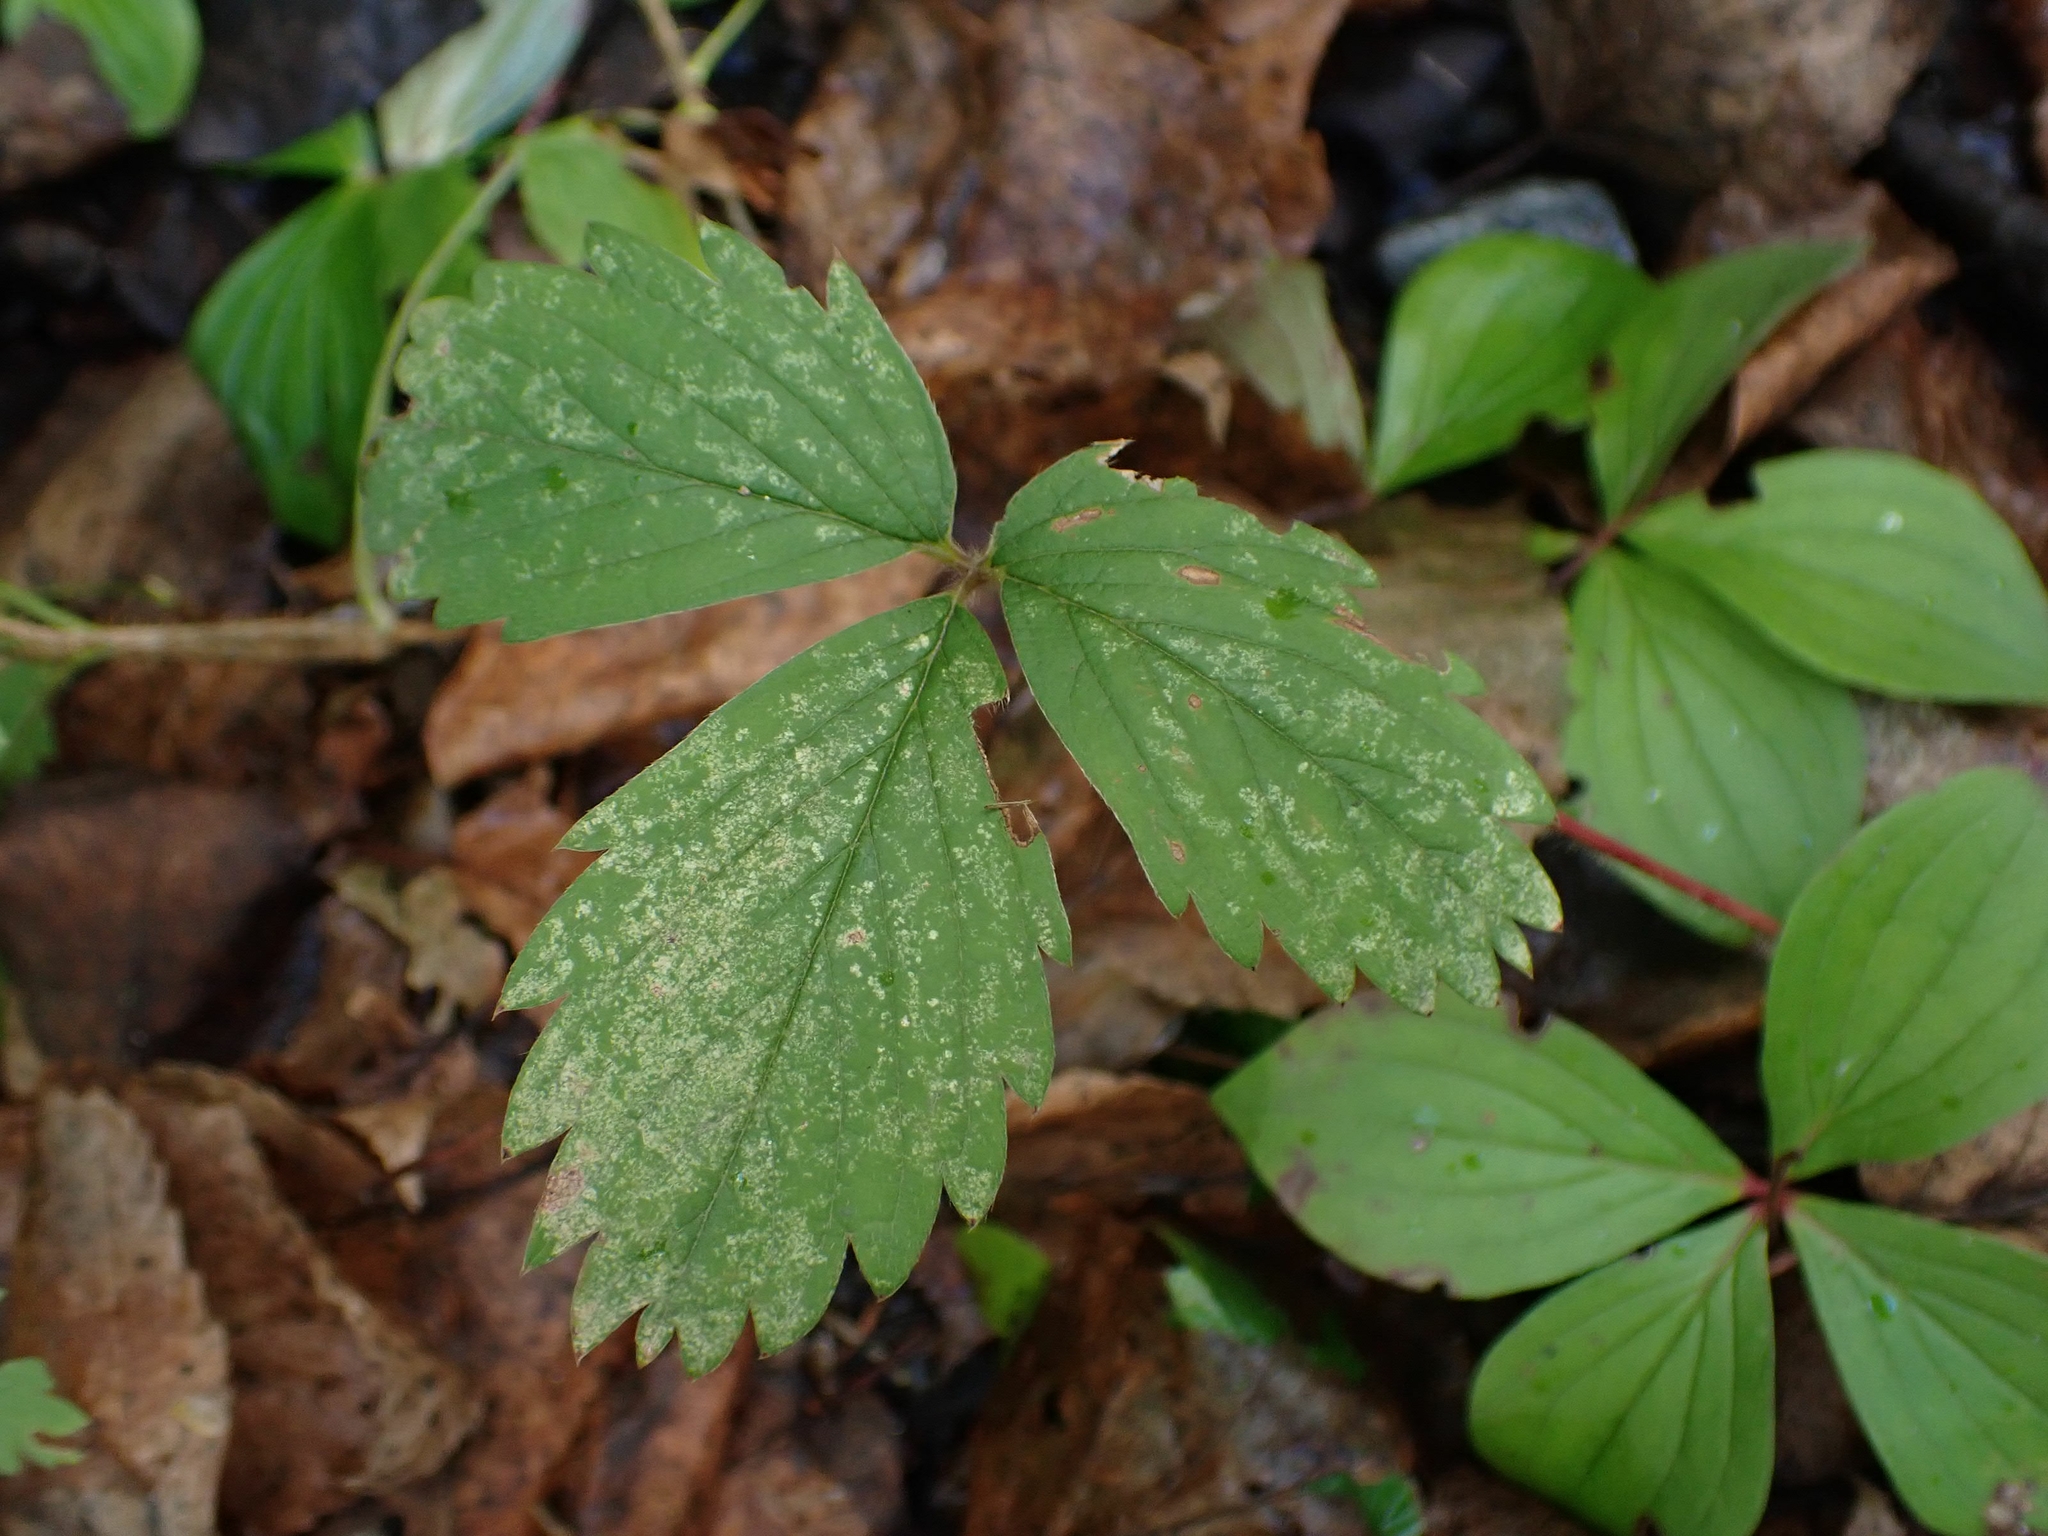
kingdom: Plantae
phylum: Tracheophyta
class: Magnoliopsida
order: Rosales
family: Rosaceae
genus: Fragaria
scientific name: Fragaria virginiana
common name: Thickleaved wild strawberry
